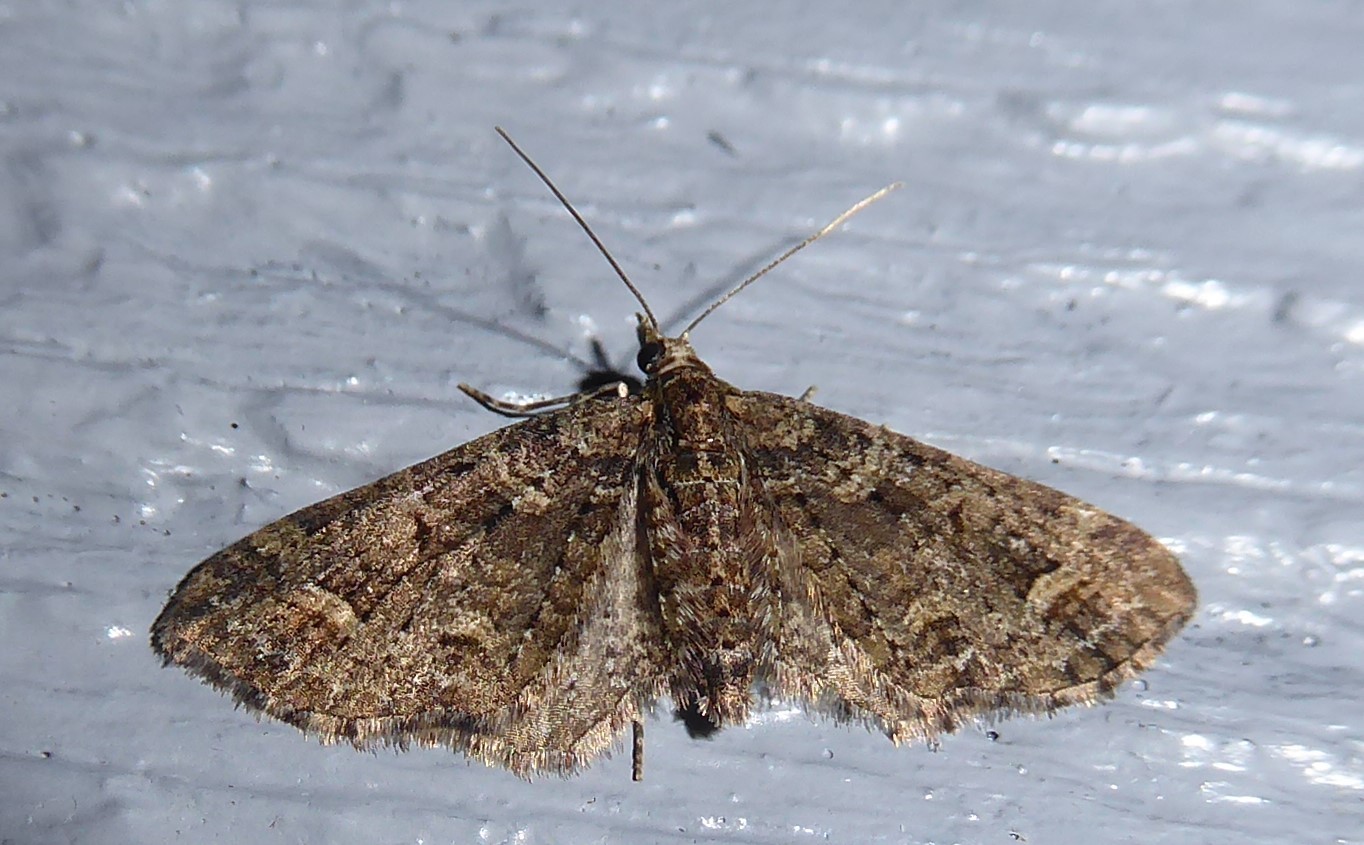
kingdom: Animalia
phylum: Arthropoda
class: Insecta
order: Lepidoptera
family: Geometridae
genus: Idaea
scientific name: Idaea mutanda
